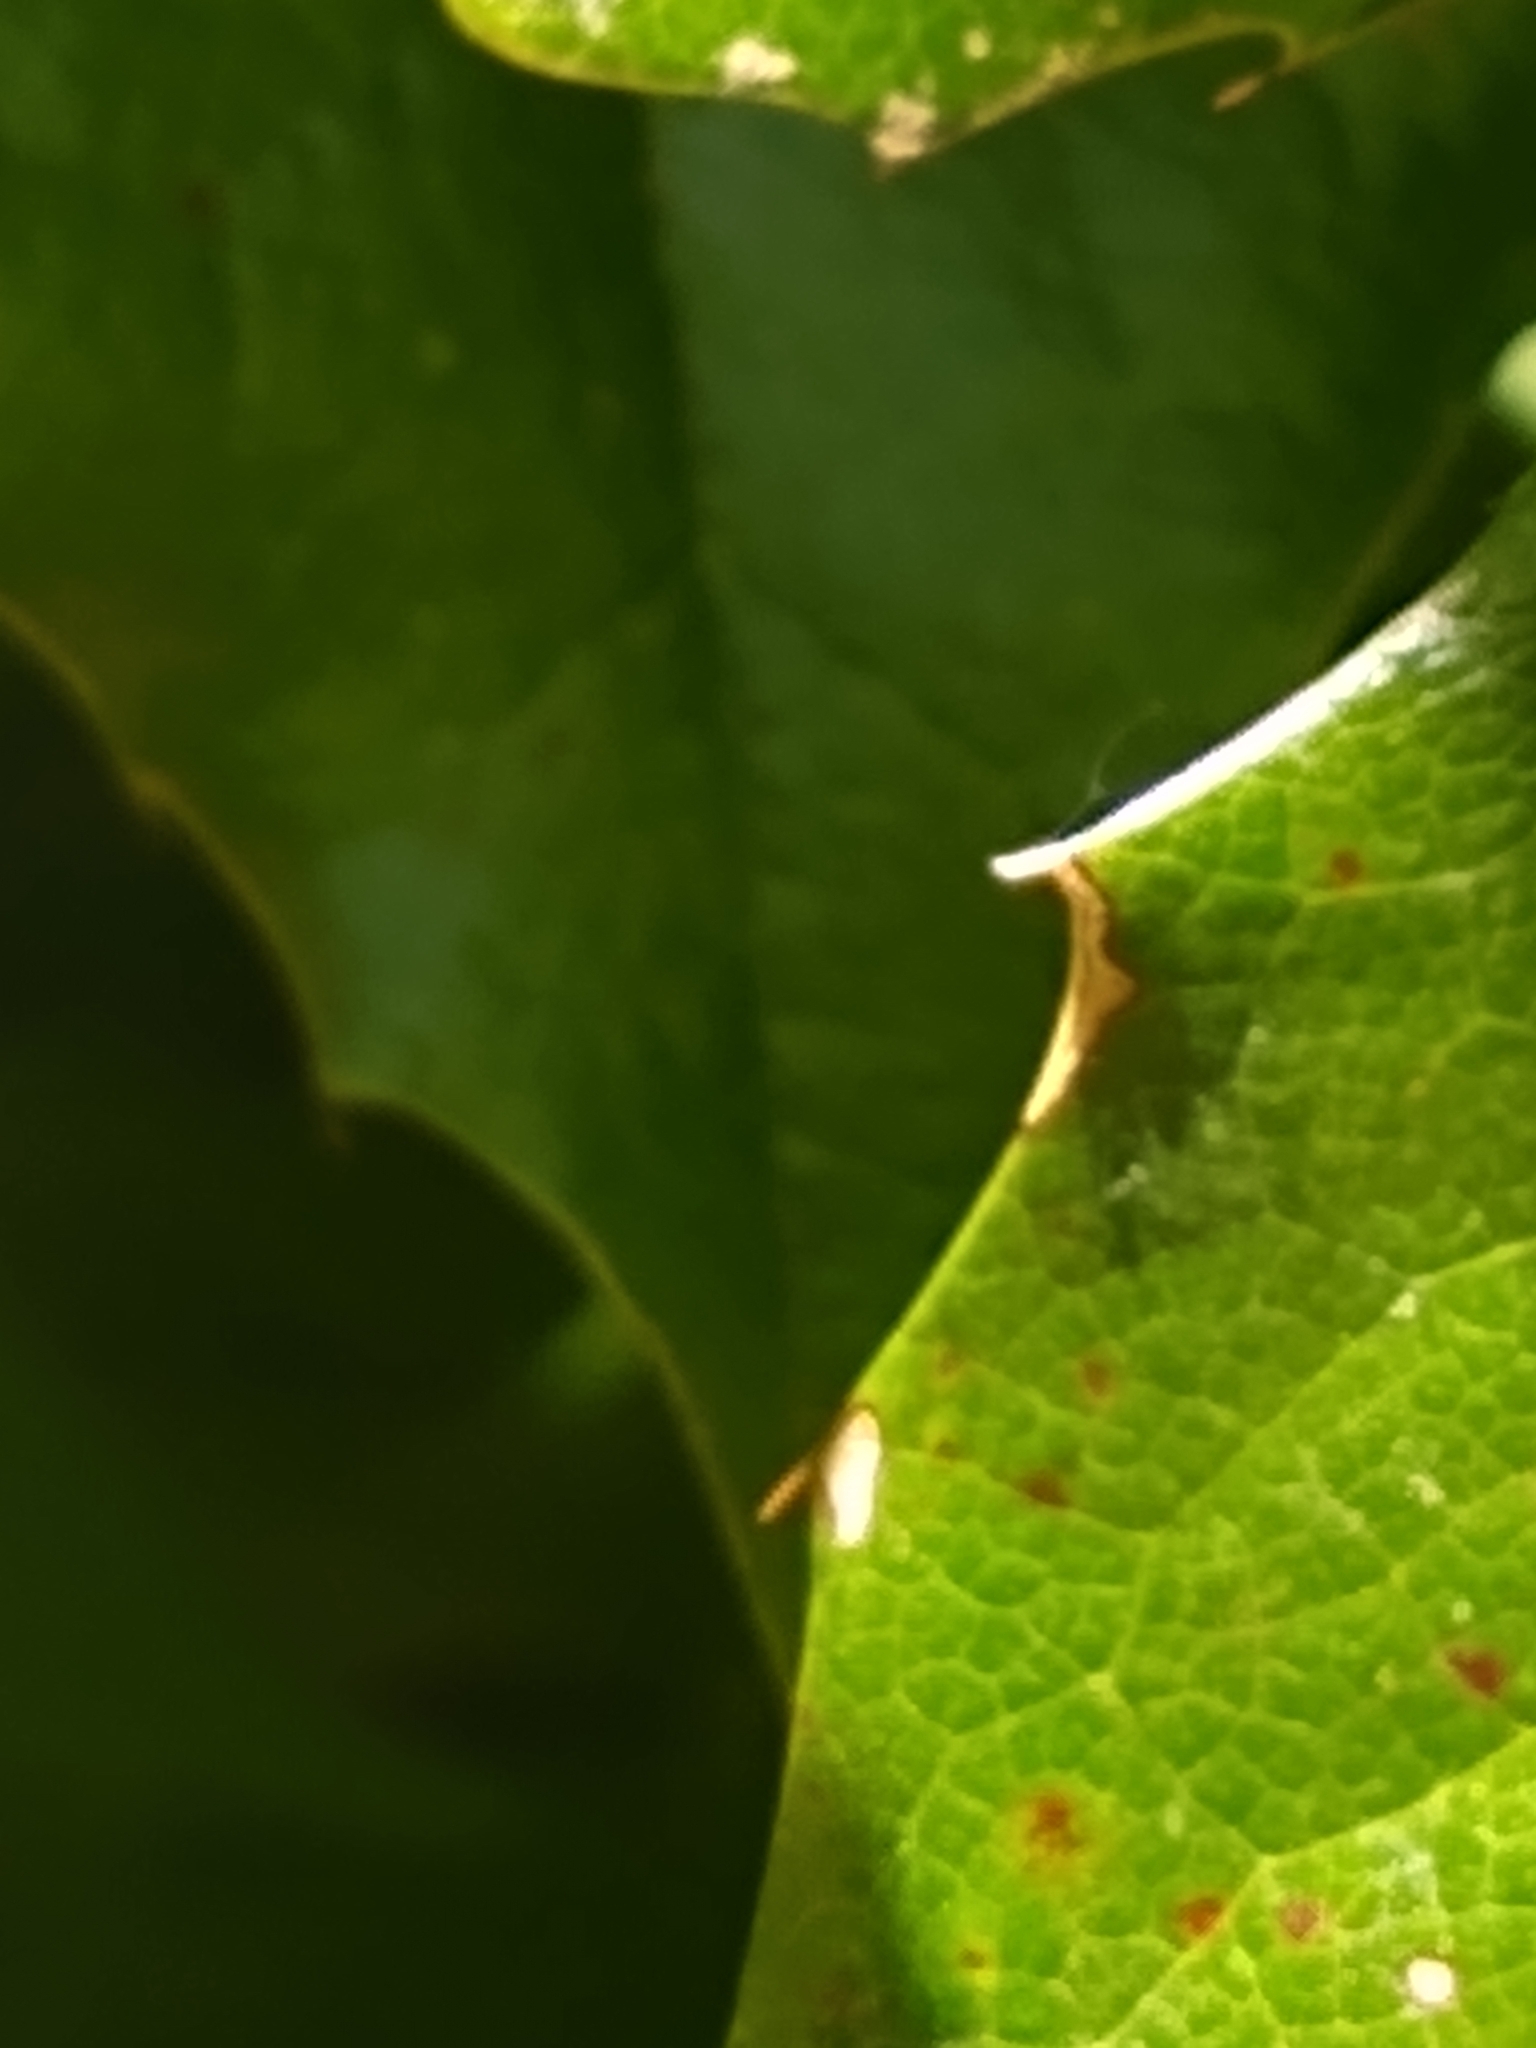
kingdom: Animalia
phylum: Arthropoda
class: Arachnida
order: Araneae
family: Salticidae
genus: Salticus
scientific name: Salticus scenicus
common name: Zebra jumper
